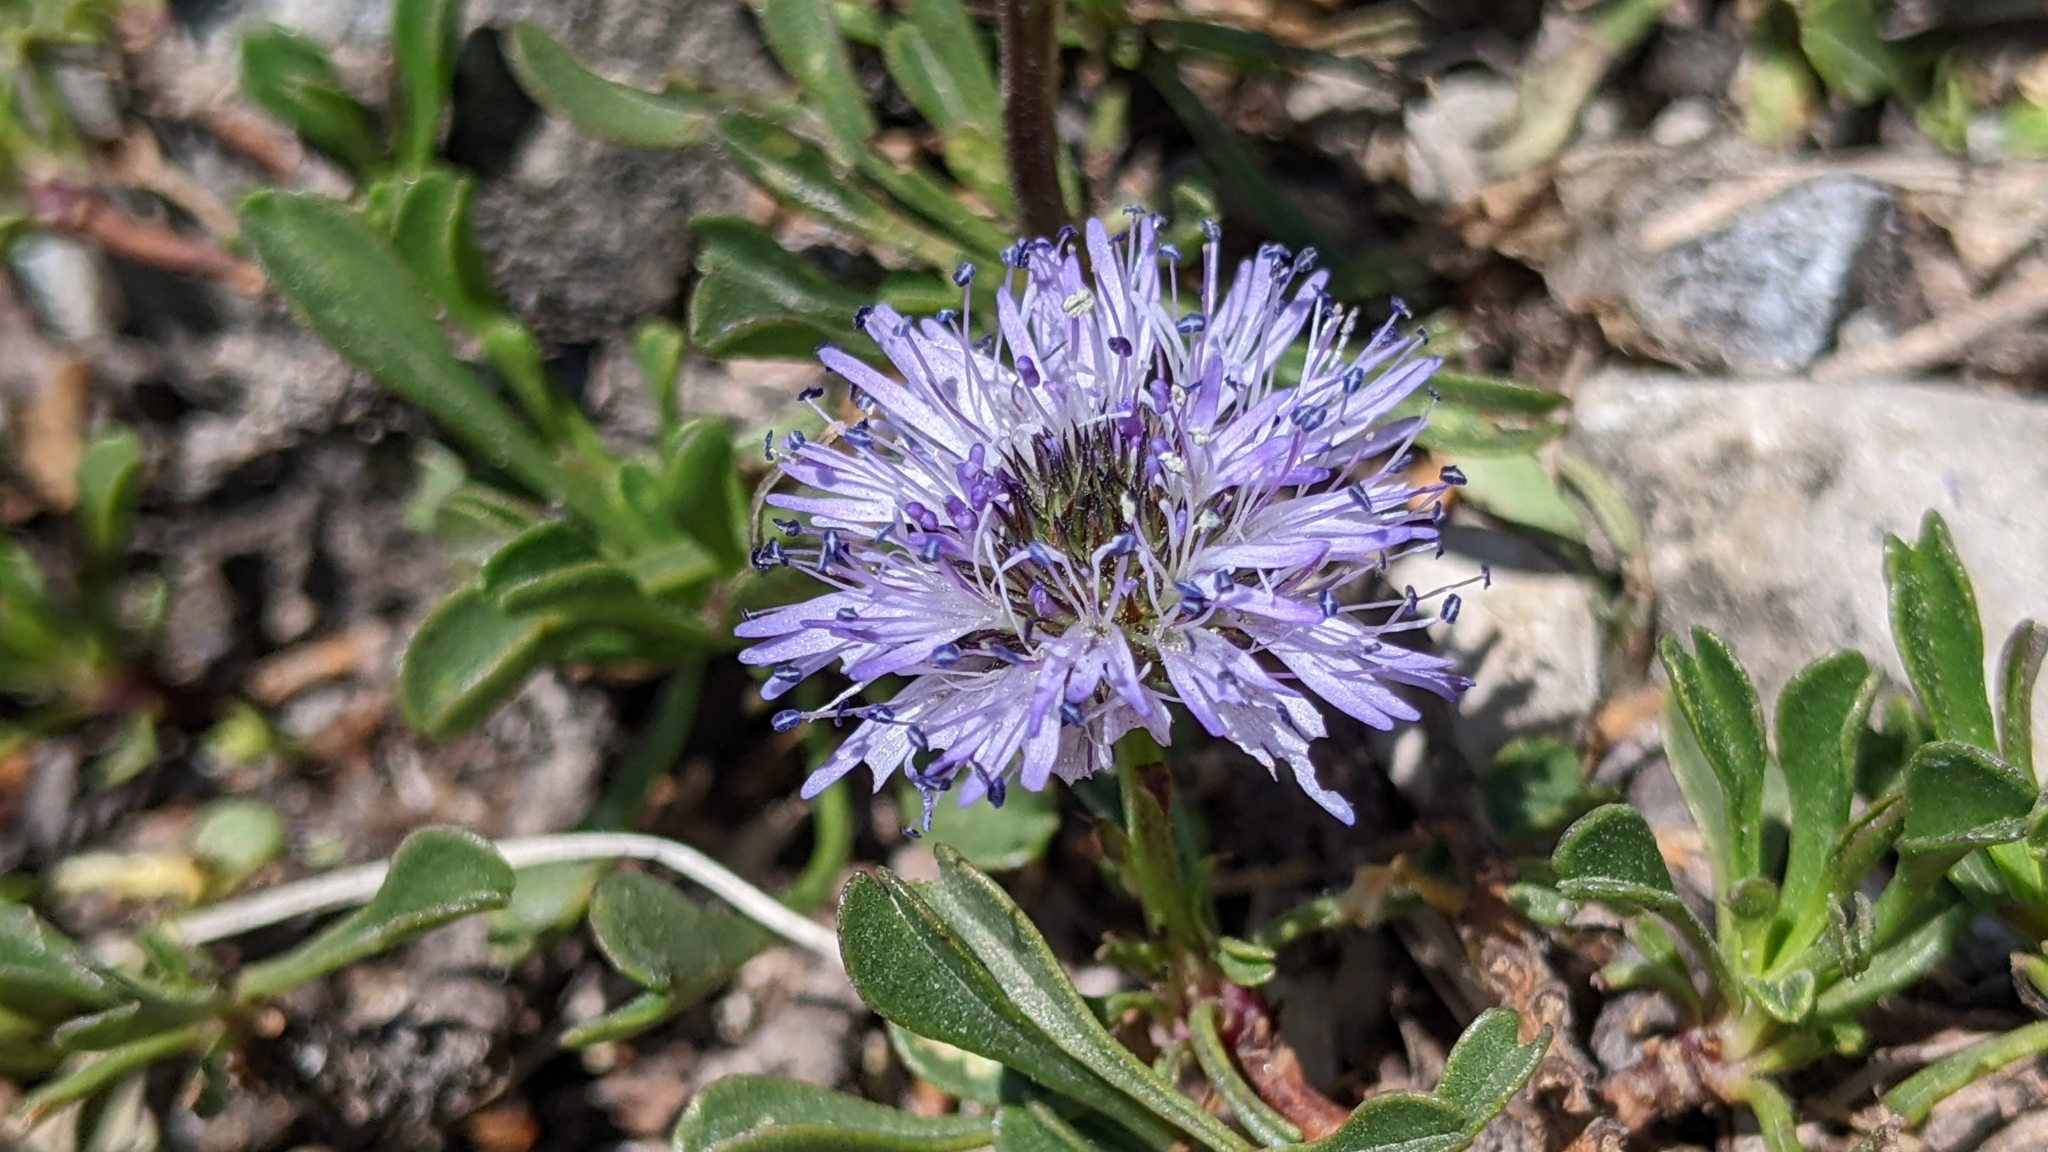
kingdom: Plantae
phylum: Tracheophyta
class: Magnoliopsida
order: Lamiales
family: Plantaginaceae
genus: Globularia
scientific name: Globularia cordifolia
